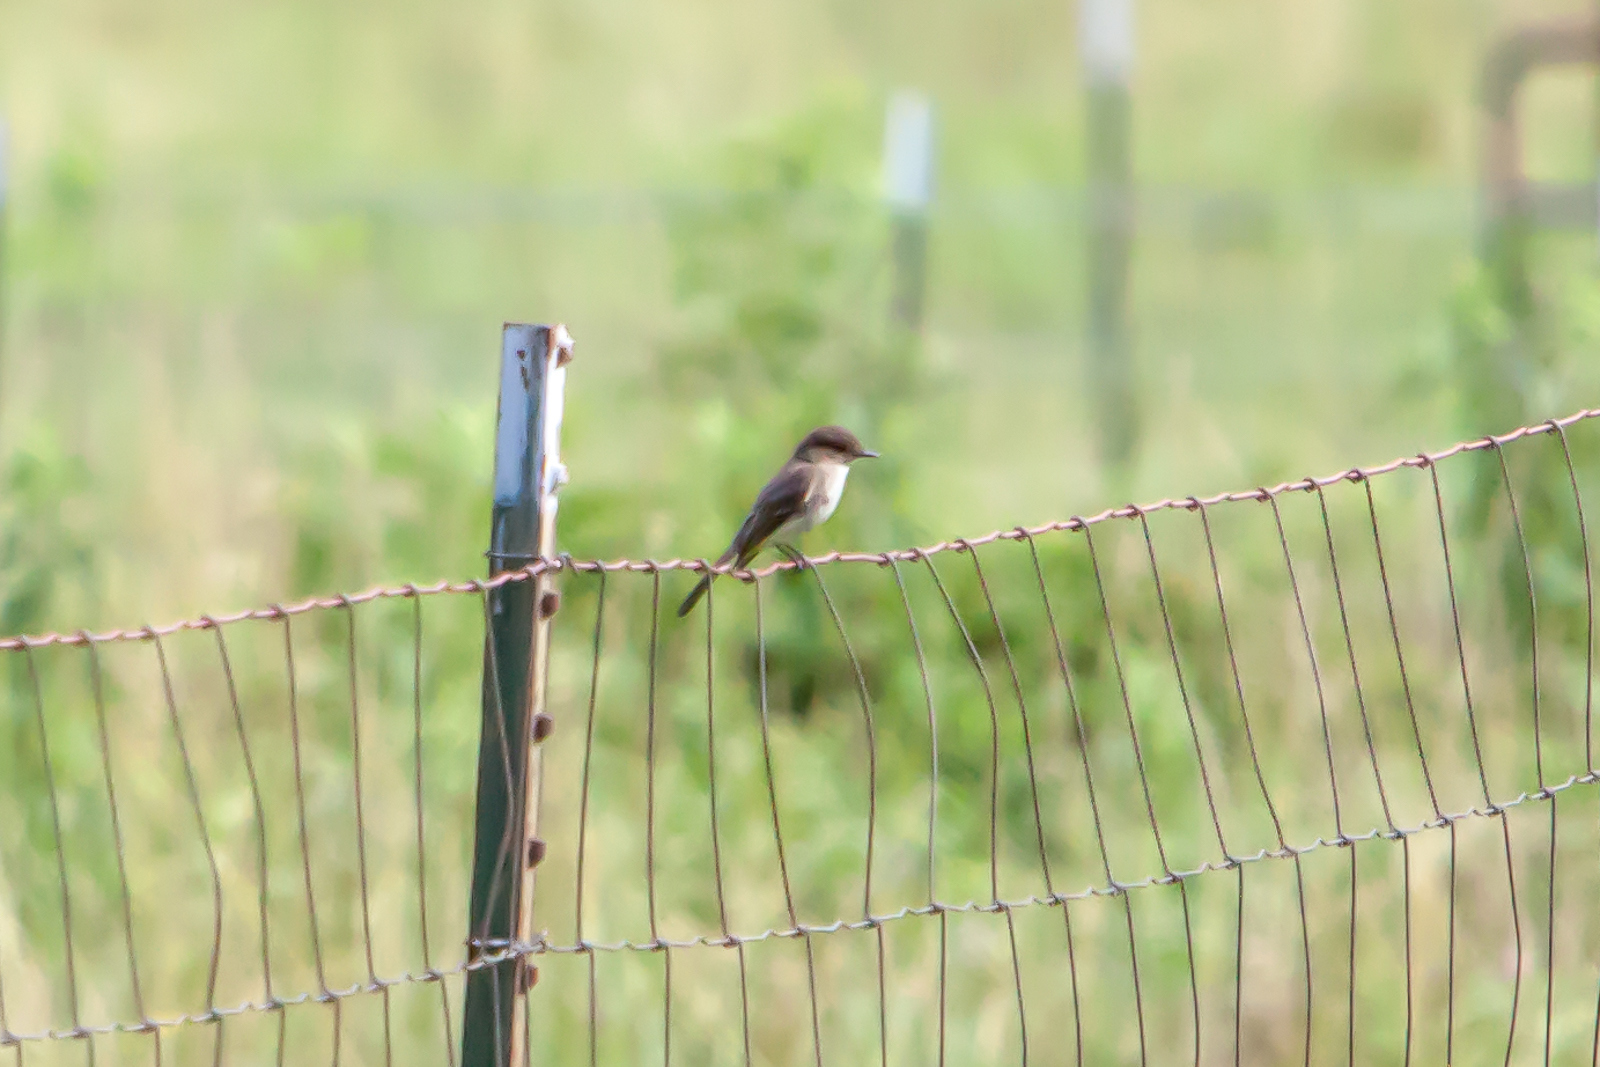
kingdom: Animalia
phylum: Chordata
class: Aves
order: Passeriformes
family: Tyrannidae
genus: Sayornis
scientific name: Sayornis phoebe
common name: Eastern phoebe
